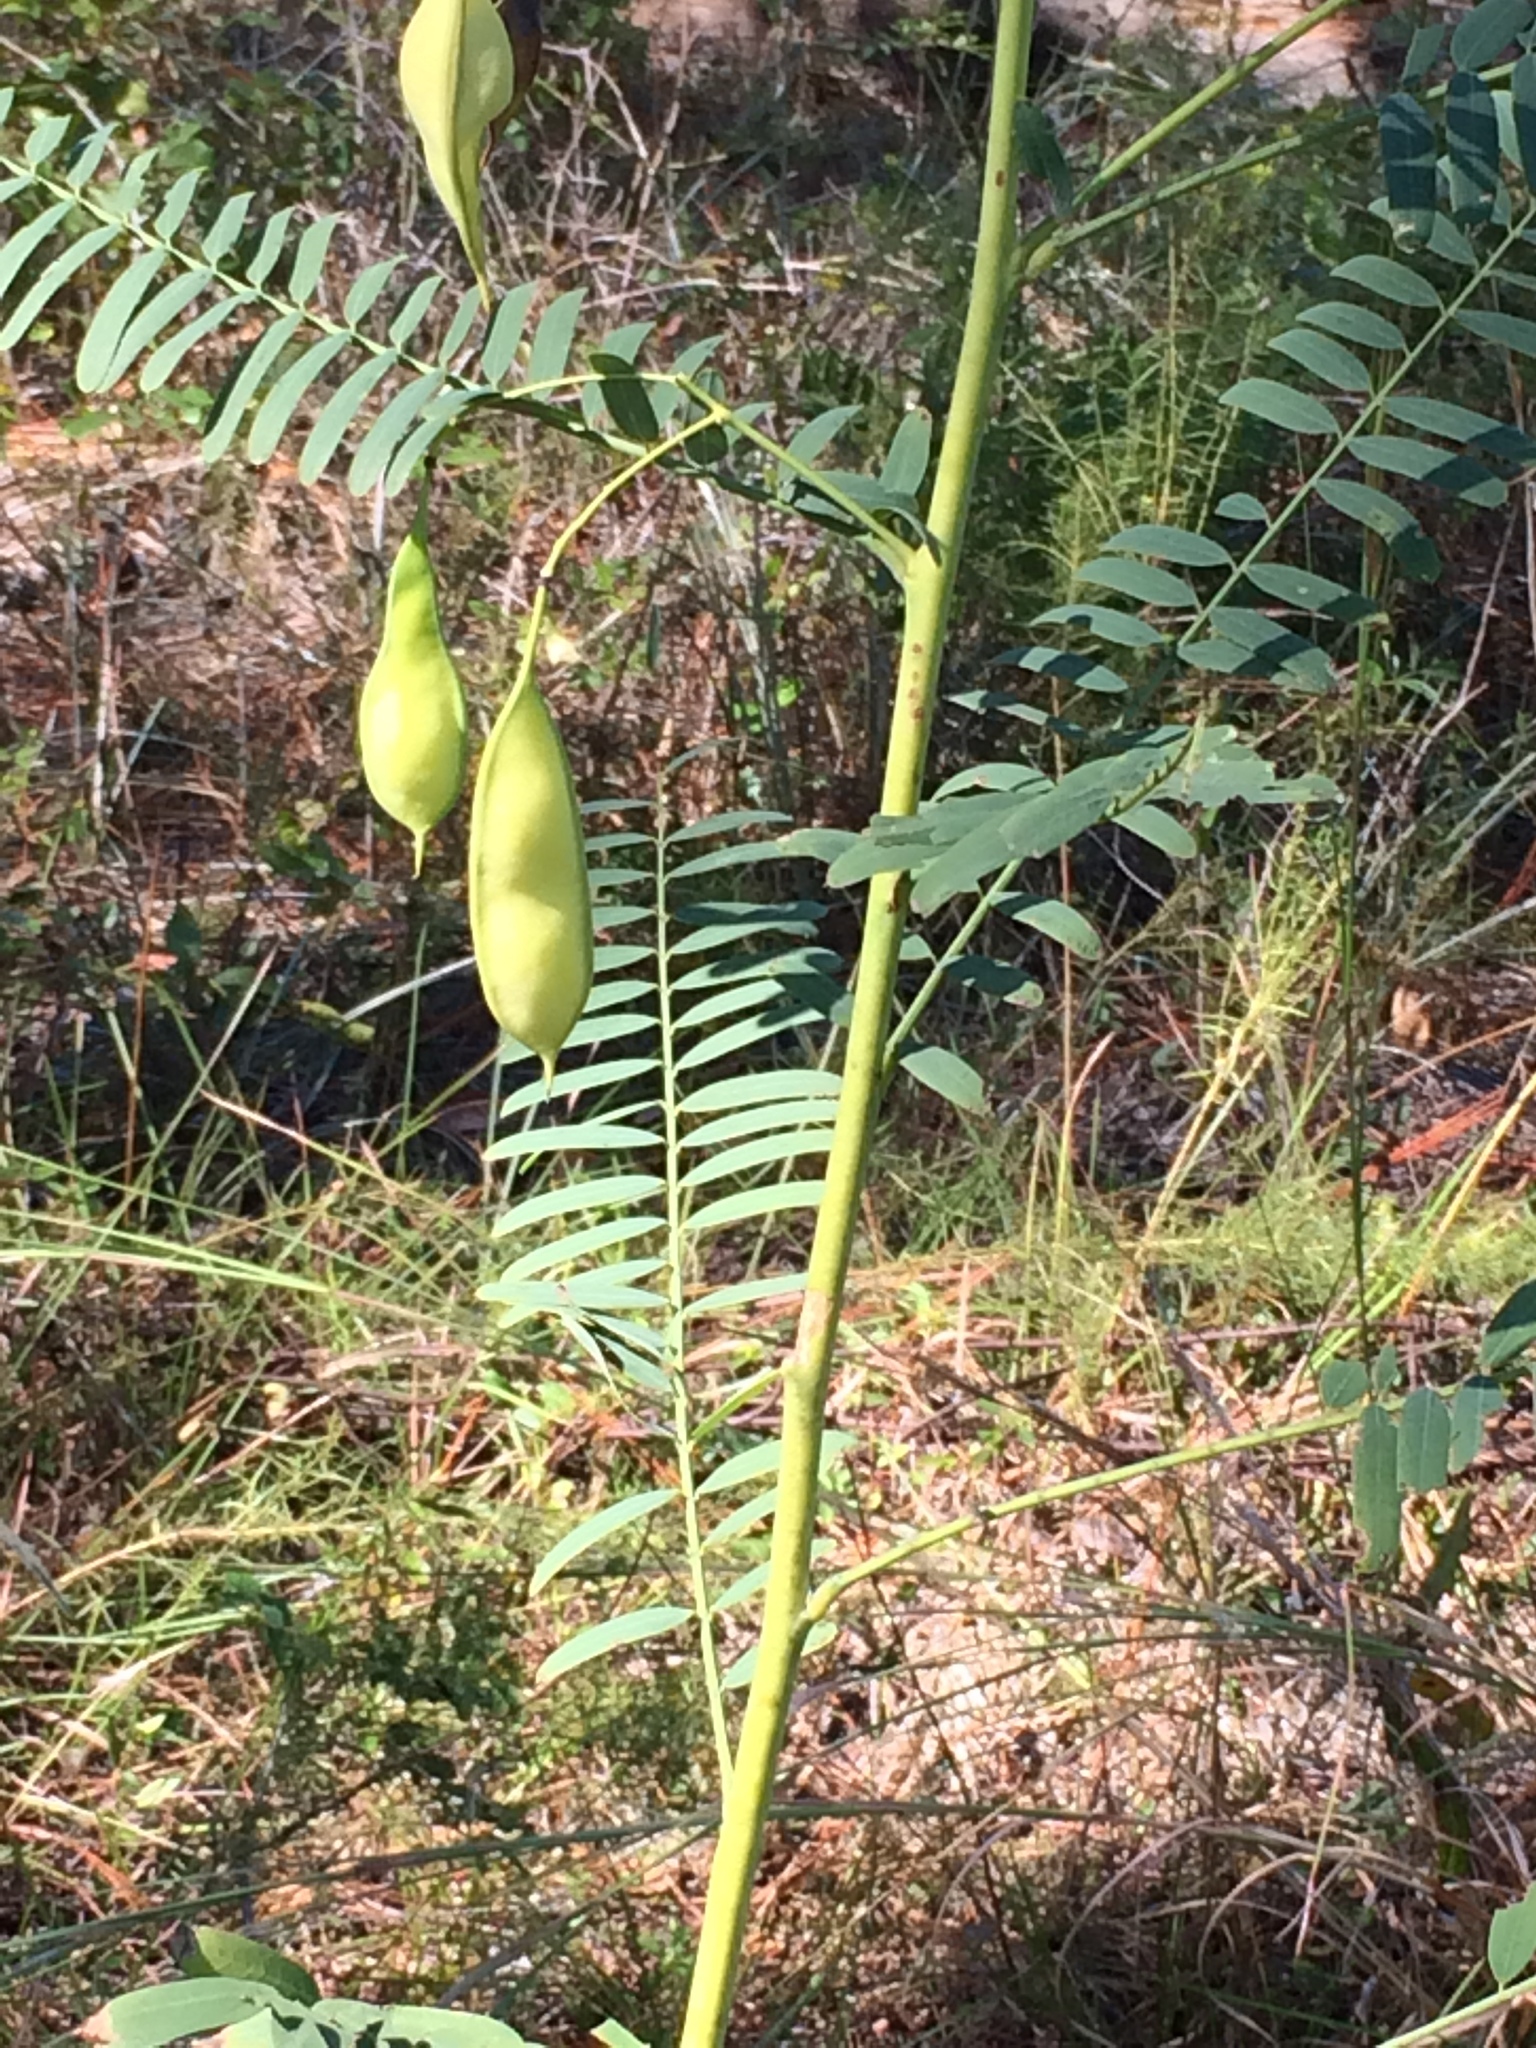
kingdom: Plantae
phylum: Tracheophyta
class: Magnoliopsida
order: Fabales
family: Fabaceae
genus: Sesbania
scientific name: Sesbania vesicaria
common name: Bagpod
